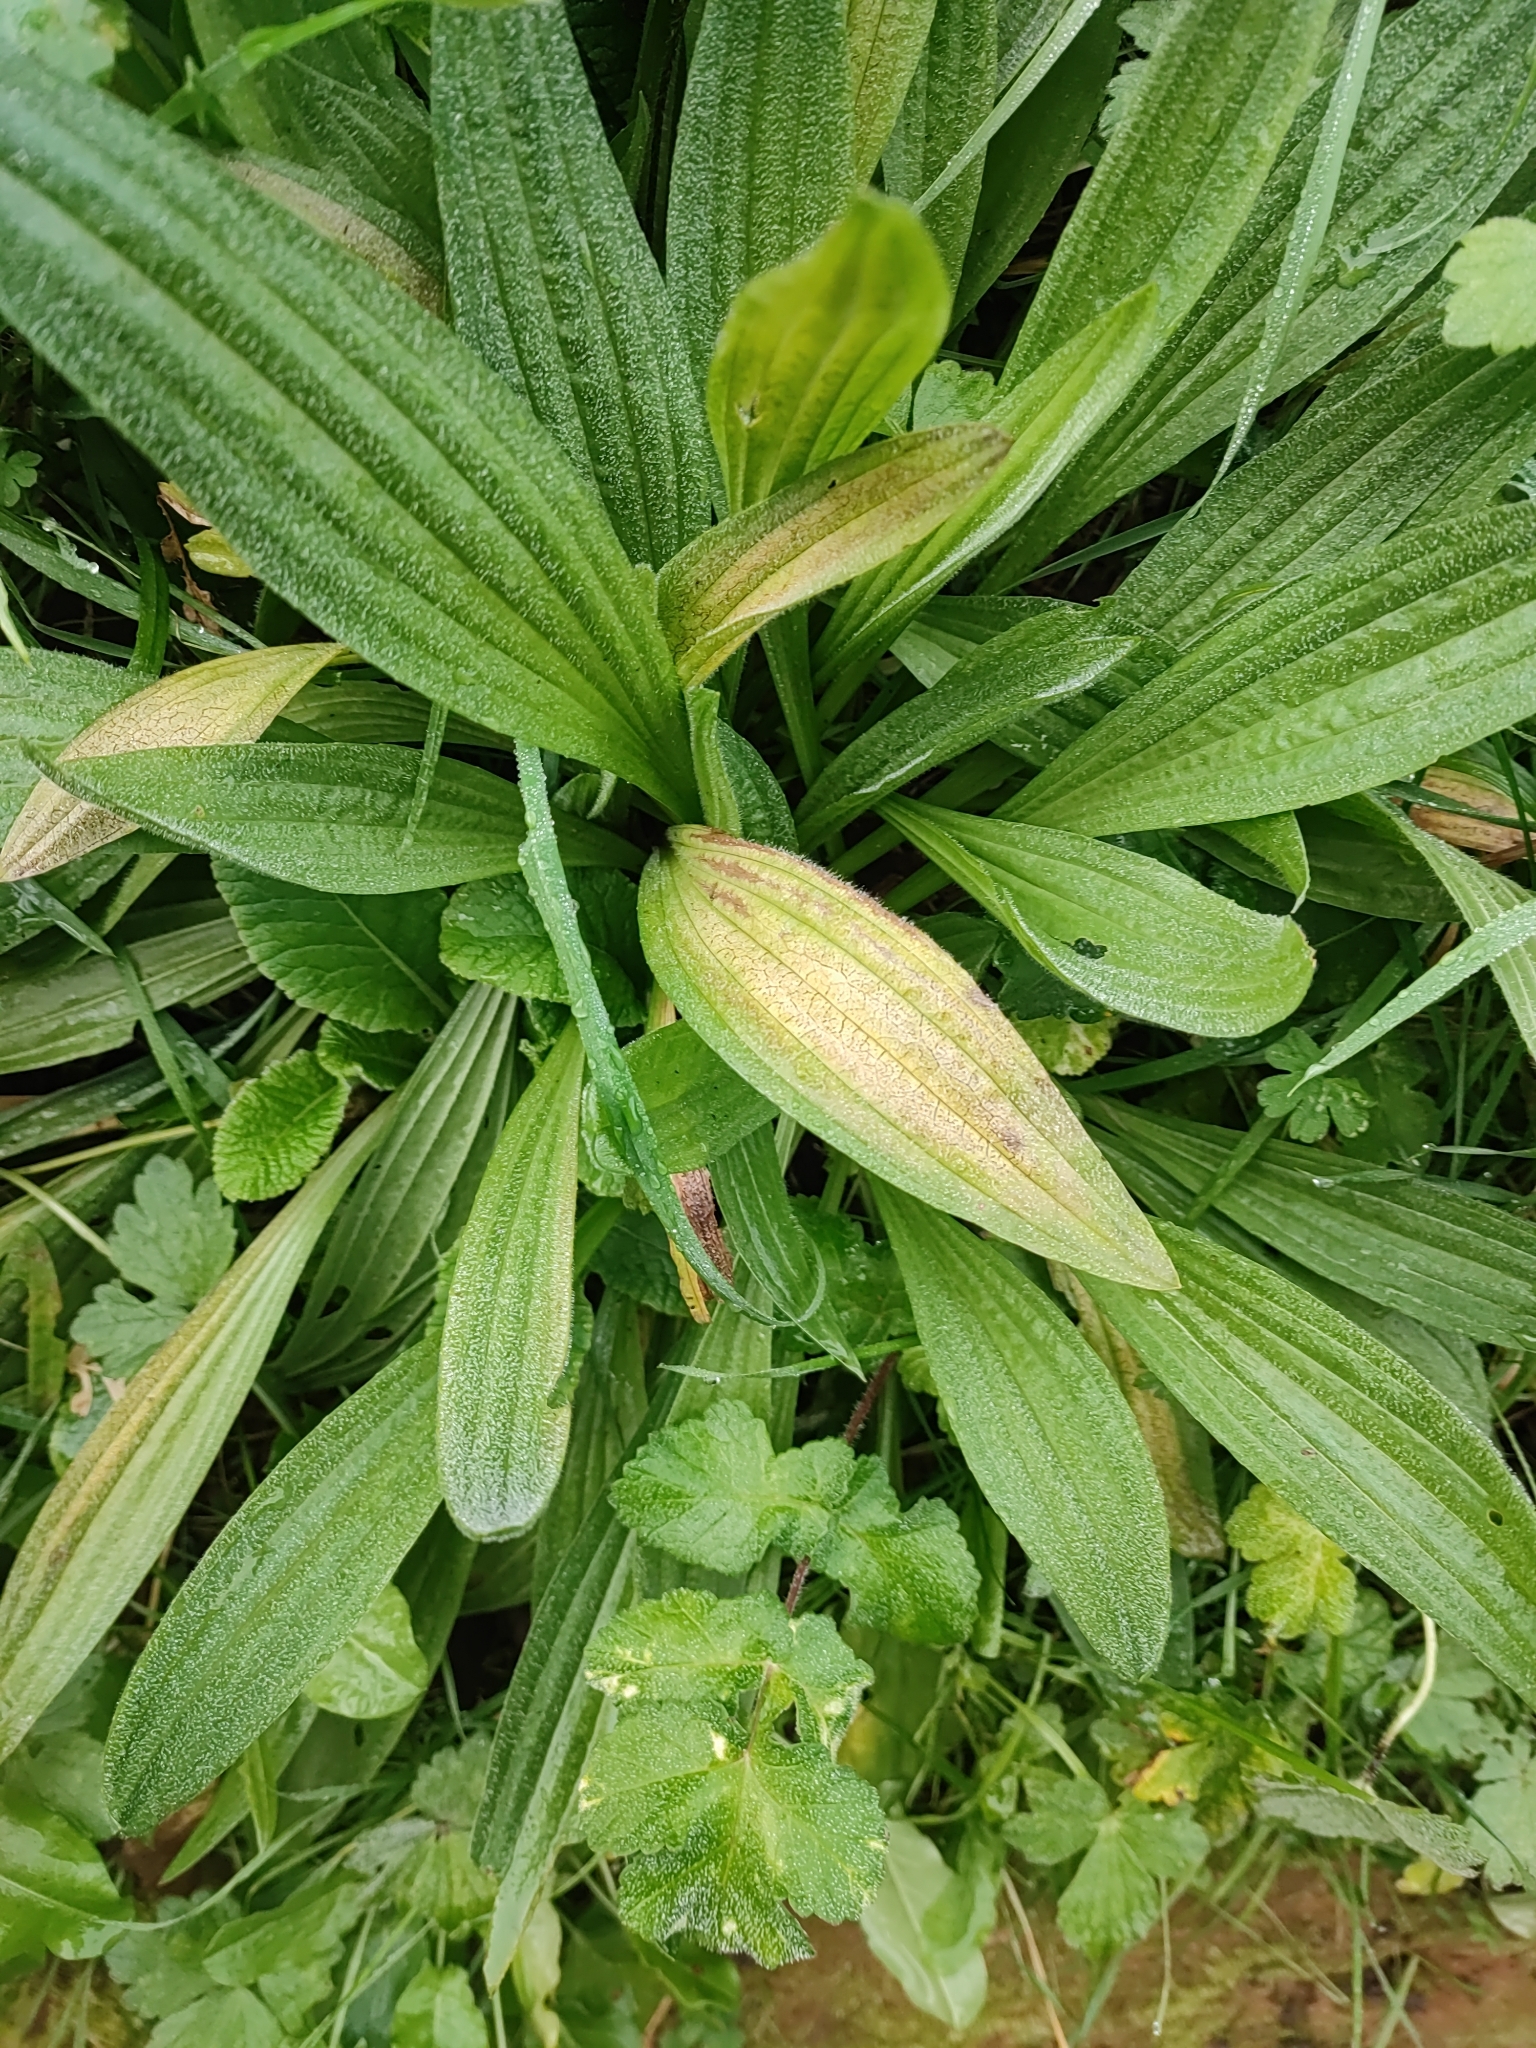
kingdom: Plantae
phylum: Tracheophyta
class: Magnoliopsida
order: Lamiales
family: Plantaginaceae
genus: Plantago
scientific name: Plantago lanceolata
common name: Ribwort plantain
